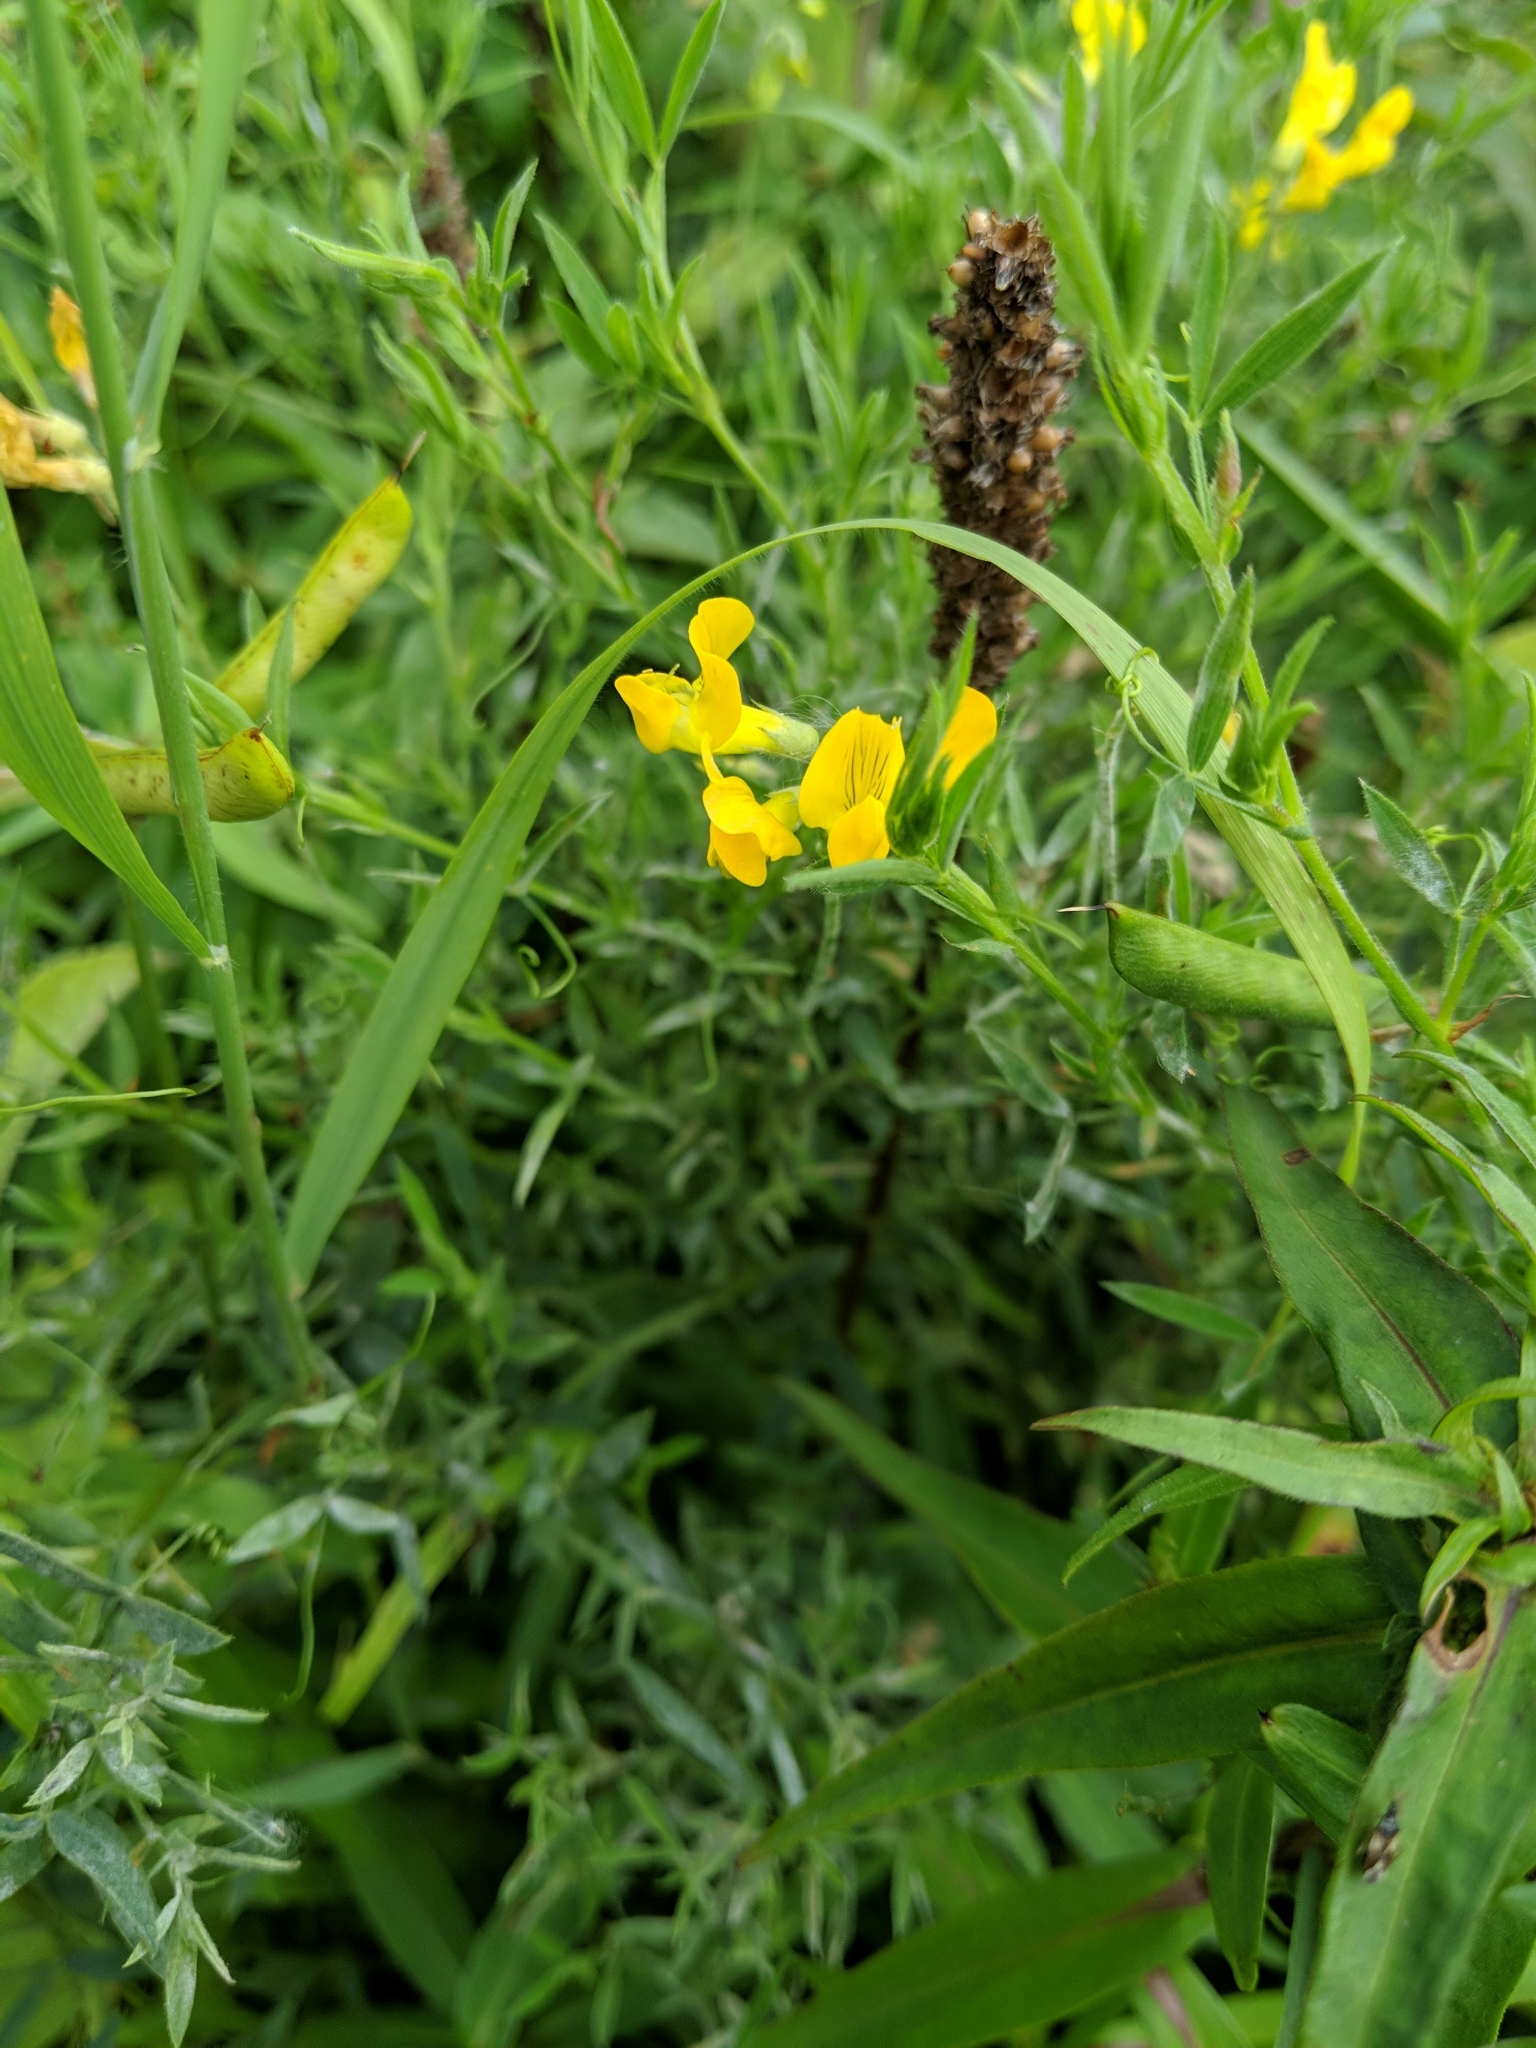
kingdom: Plantae
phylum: Tracheophyta
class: Magnoliopsida
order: Fabales
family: Fabaceae
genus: Lathyrus
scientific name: Lathyrus pratensis
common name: Meadow vetchling
